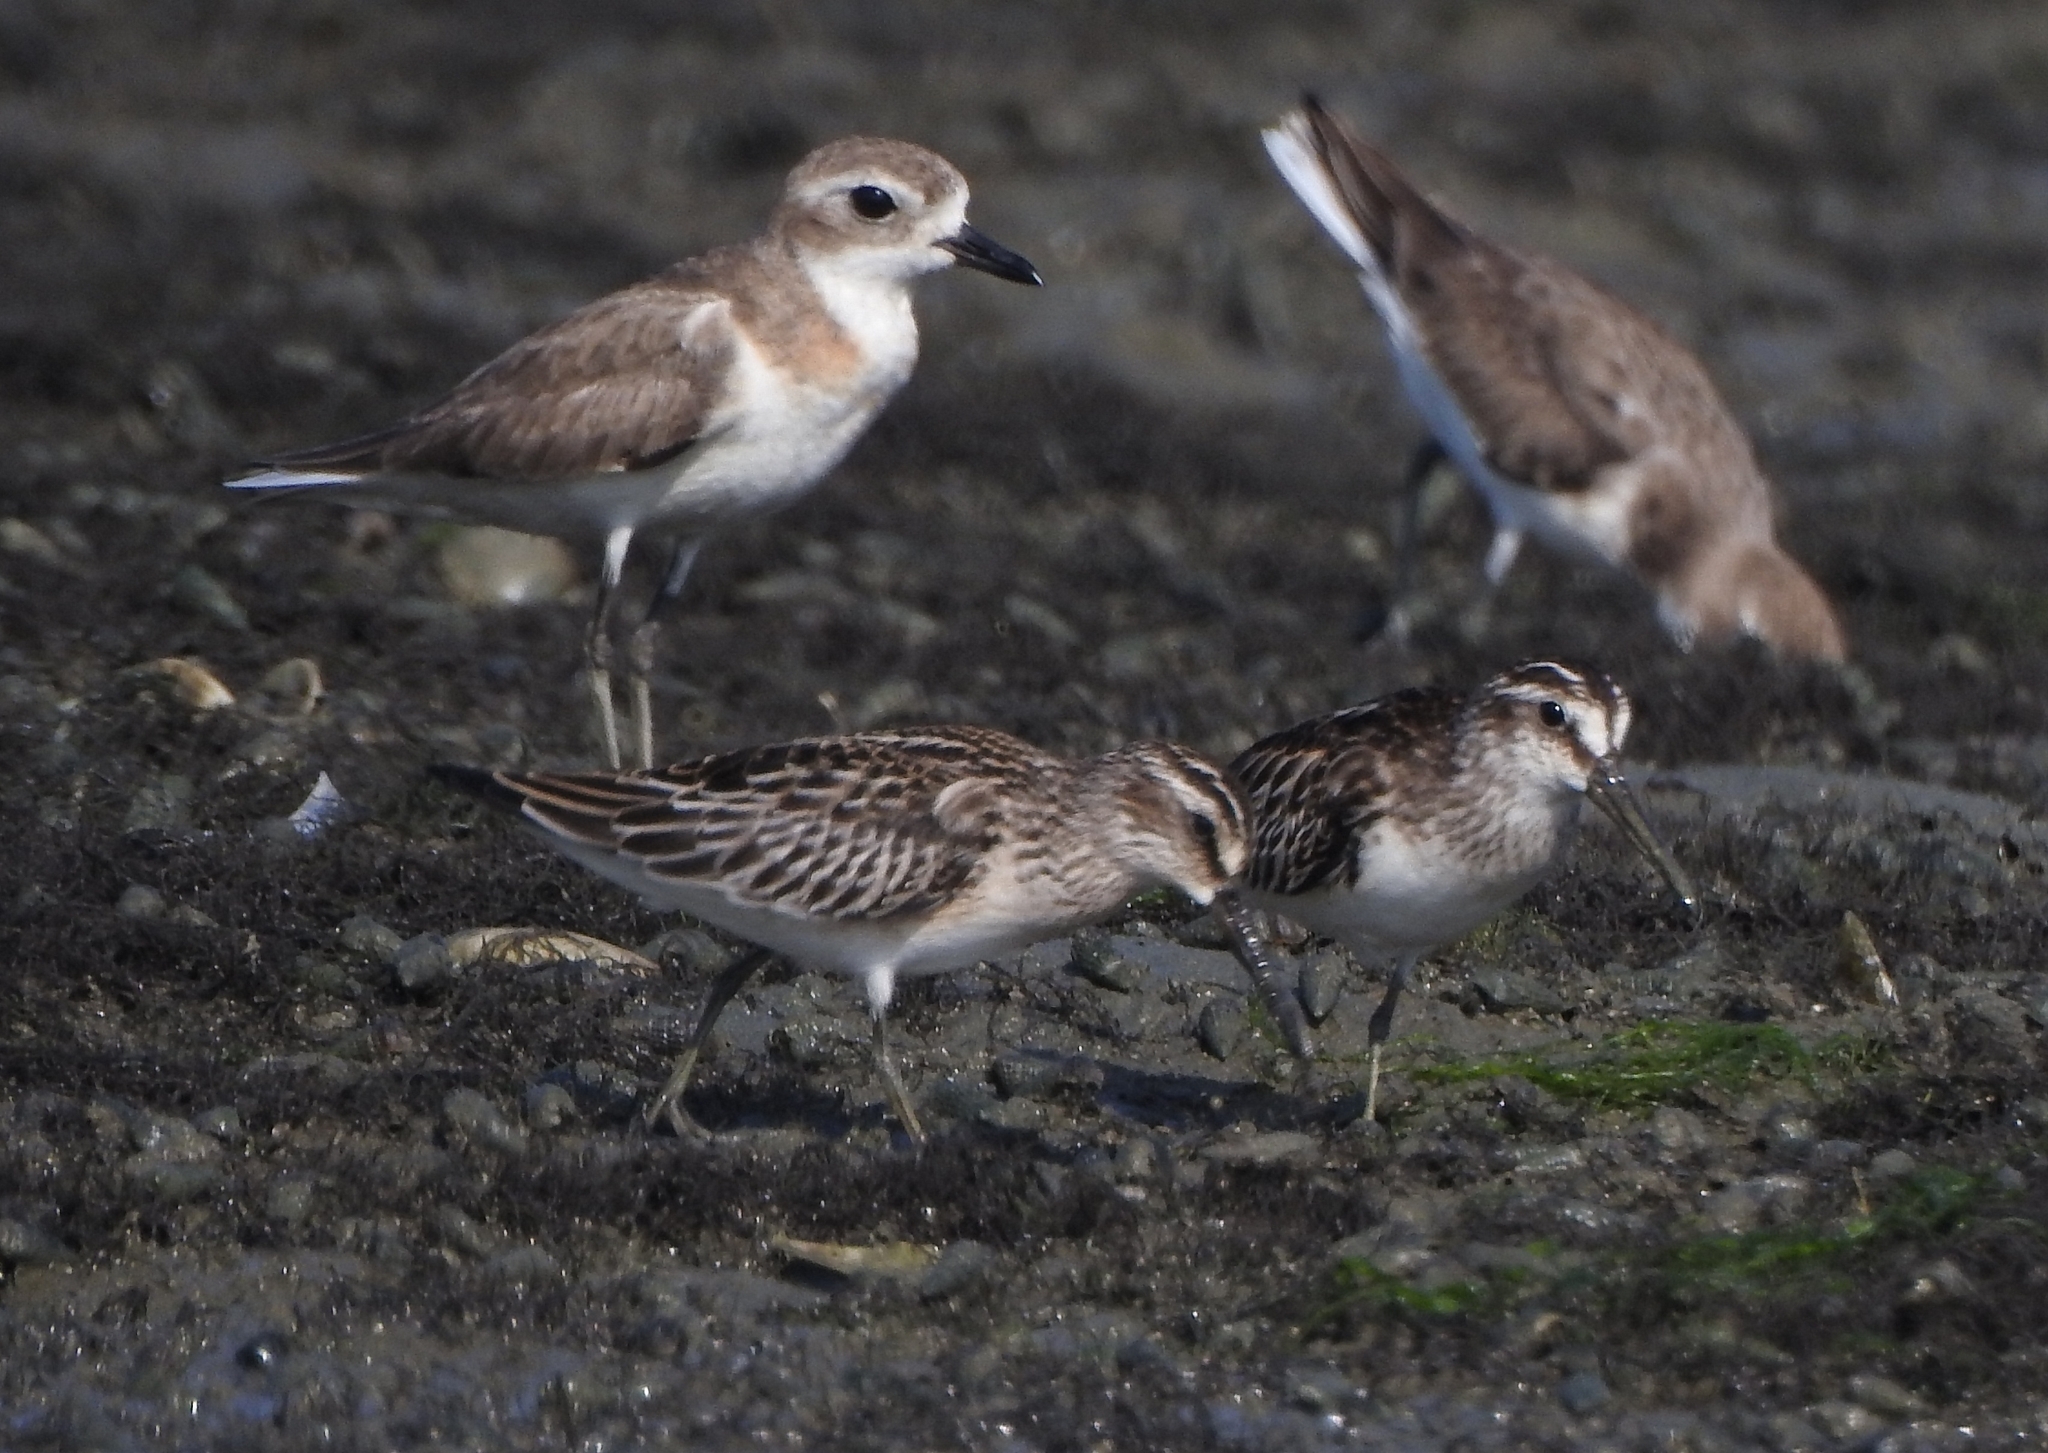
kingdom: Animalia
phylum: Chordata
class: Aves
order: Charadriiformes
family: Scolopacidae
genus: Calidris
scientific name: Calidris falcinellus
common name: Broad-billed sandpiper
